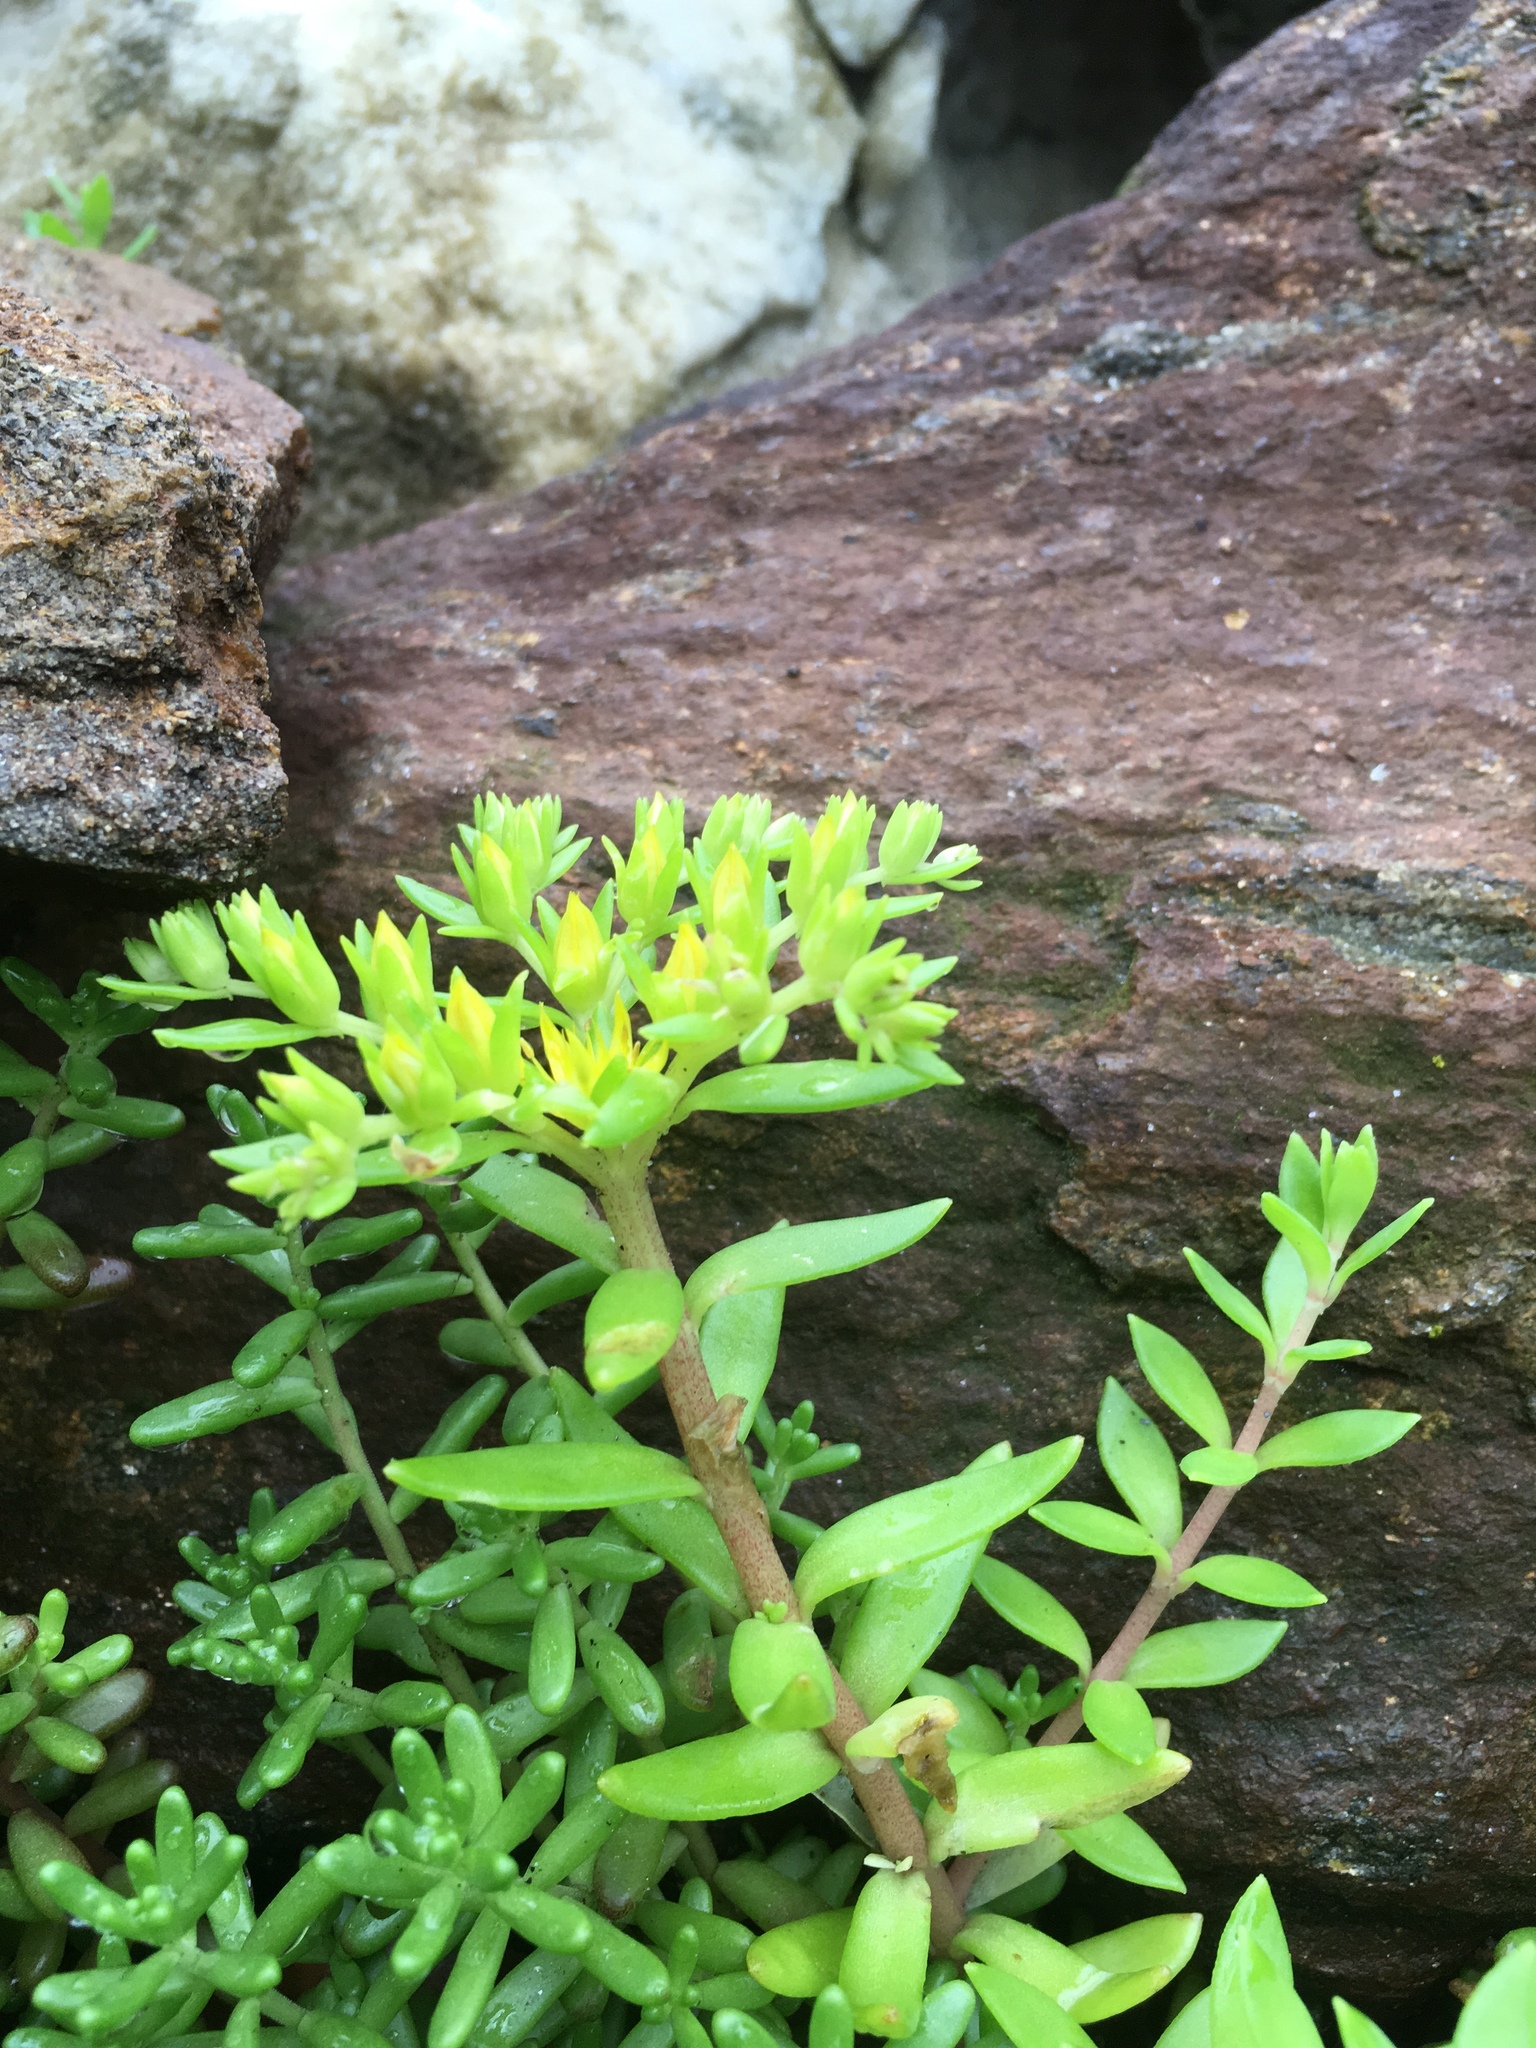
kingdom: Plantae
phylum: Tracheophyta
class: Magnoliopsida
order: Saxifragales
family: Crassulaceae
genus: Sedum
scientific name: Sedum sarmentosum
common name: Stringy stonecrop
